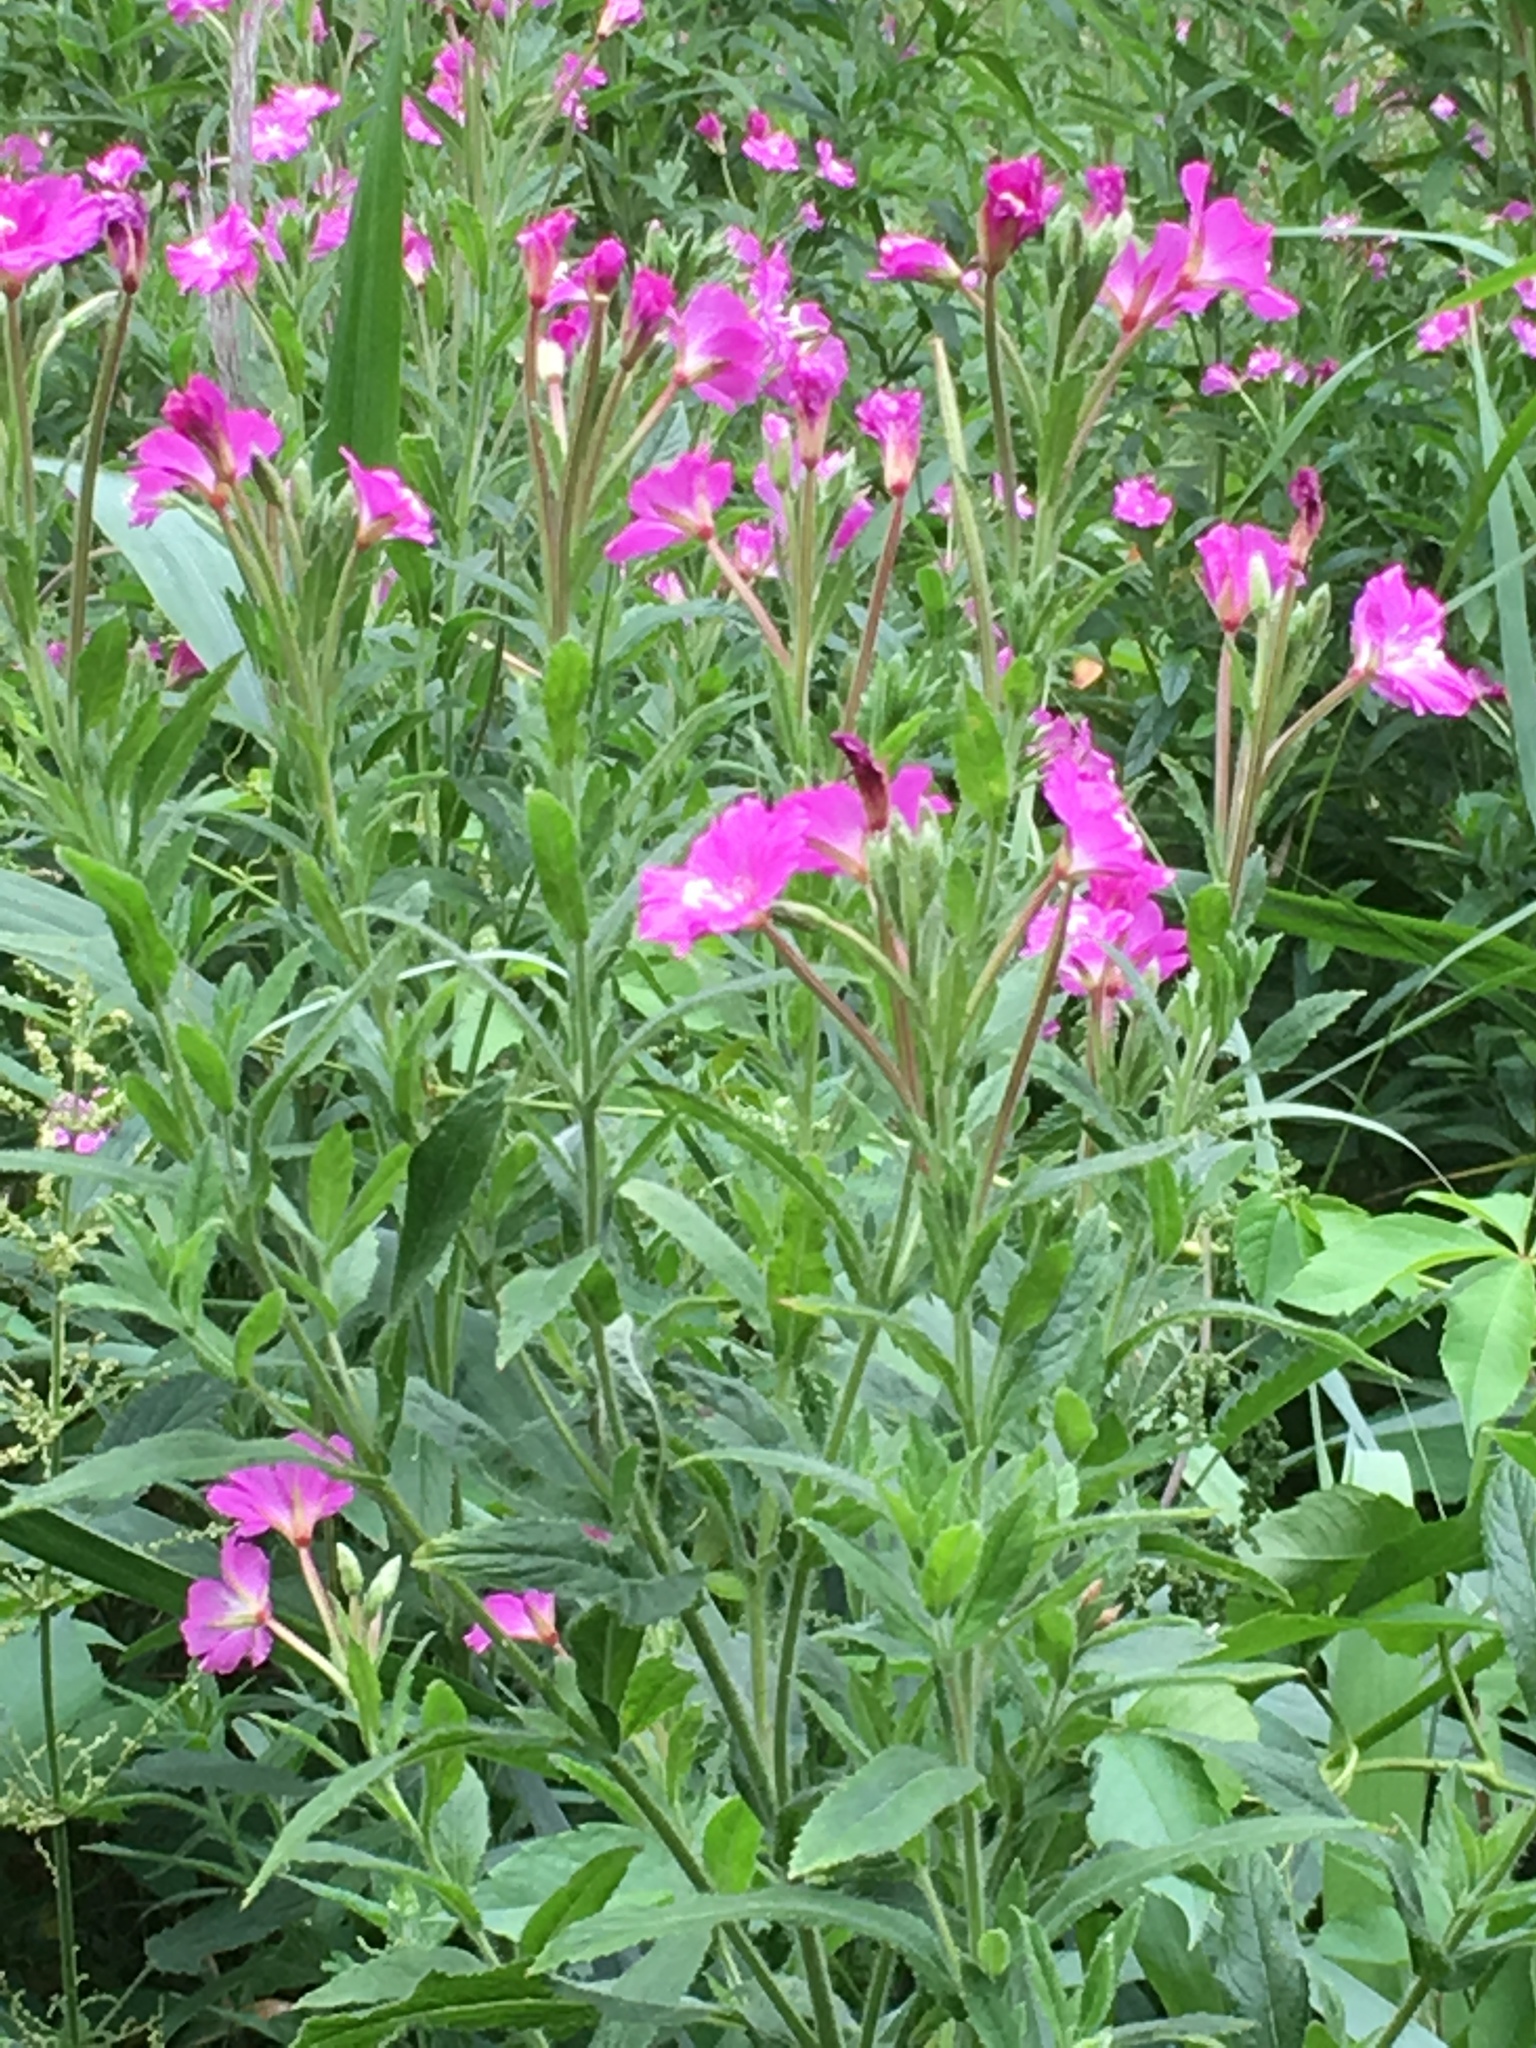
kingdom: Plantae
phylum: Tracheophyta
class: Magnoliopsida
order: Myrtales
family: Onagraceae
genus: Epilobium
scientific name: Epilobium hirsutum
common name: Great willowherb
